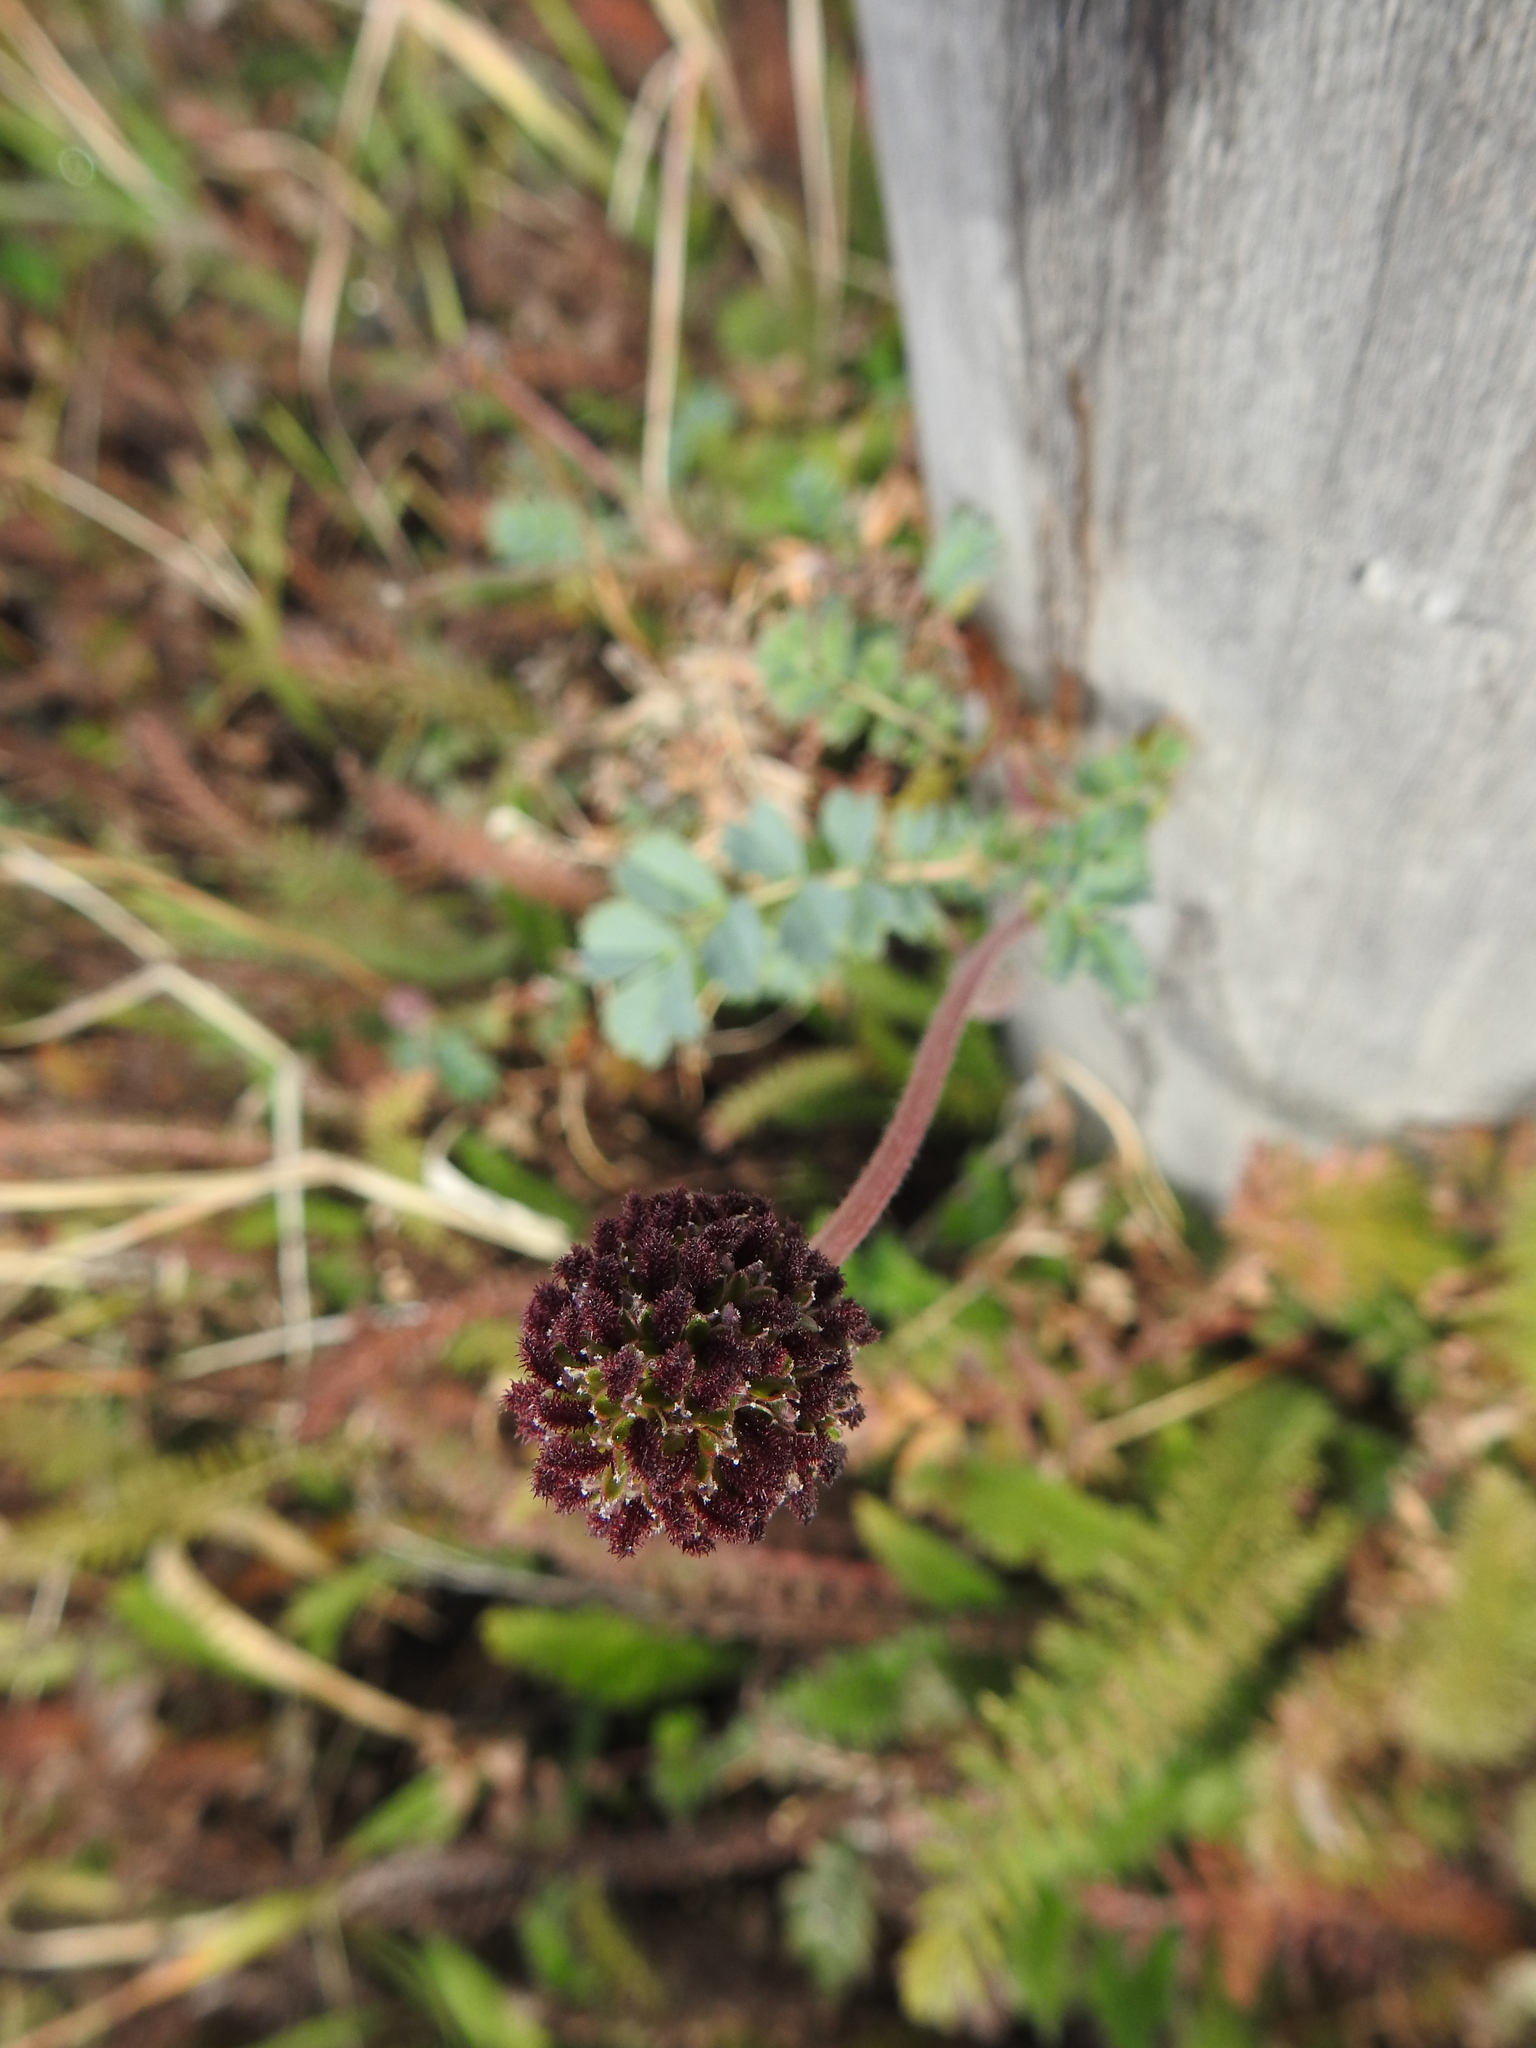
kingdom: Plantae
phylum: Tracheophyta
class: Magnoliopsida
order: Rosales
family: Rosaceae
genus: Acaena
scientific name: Acaena magellanica
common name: New zealand burr
